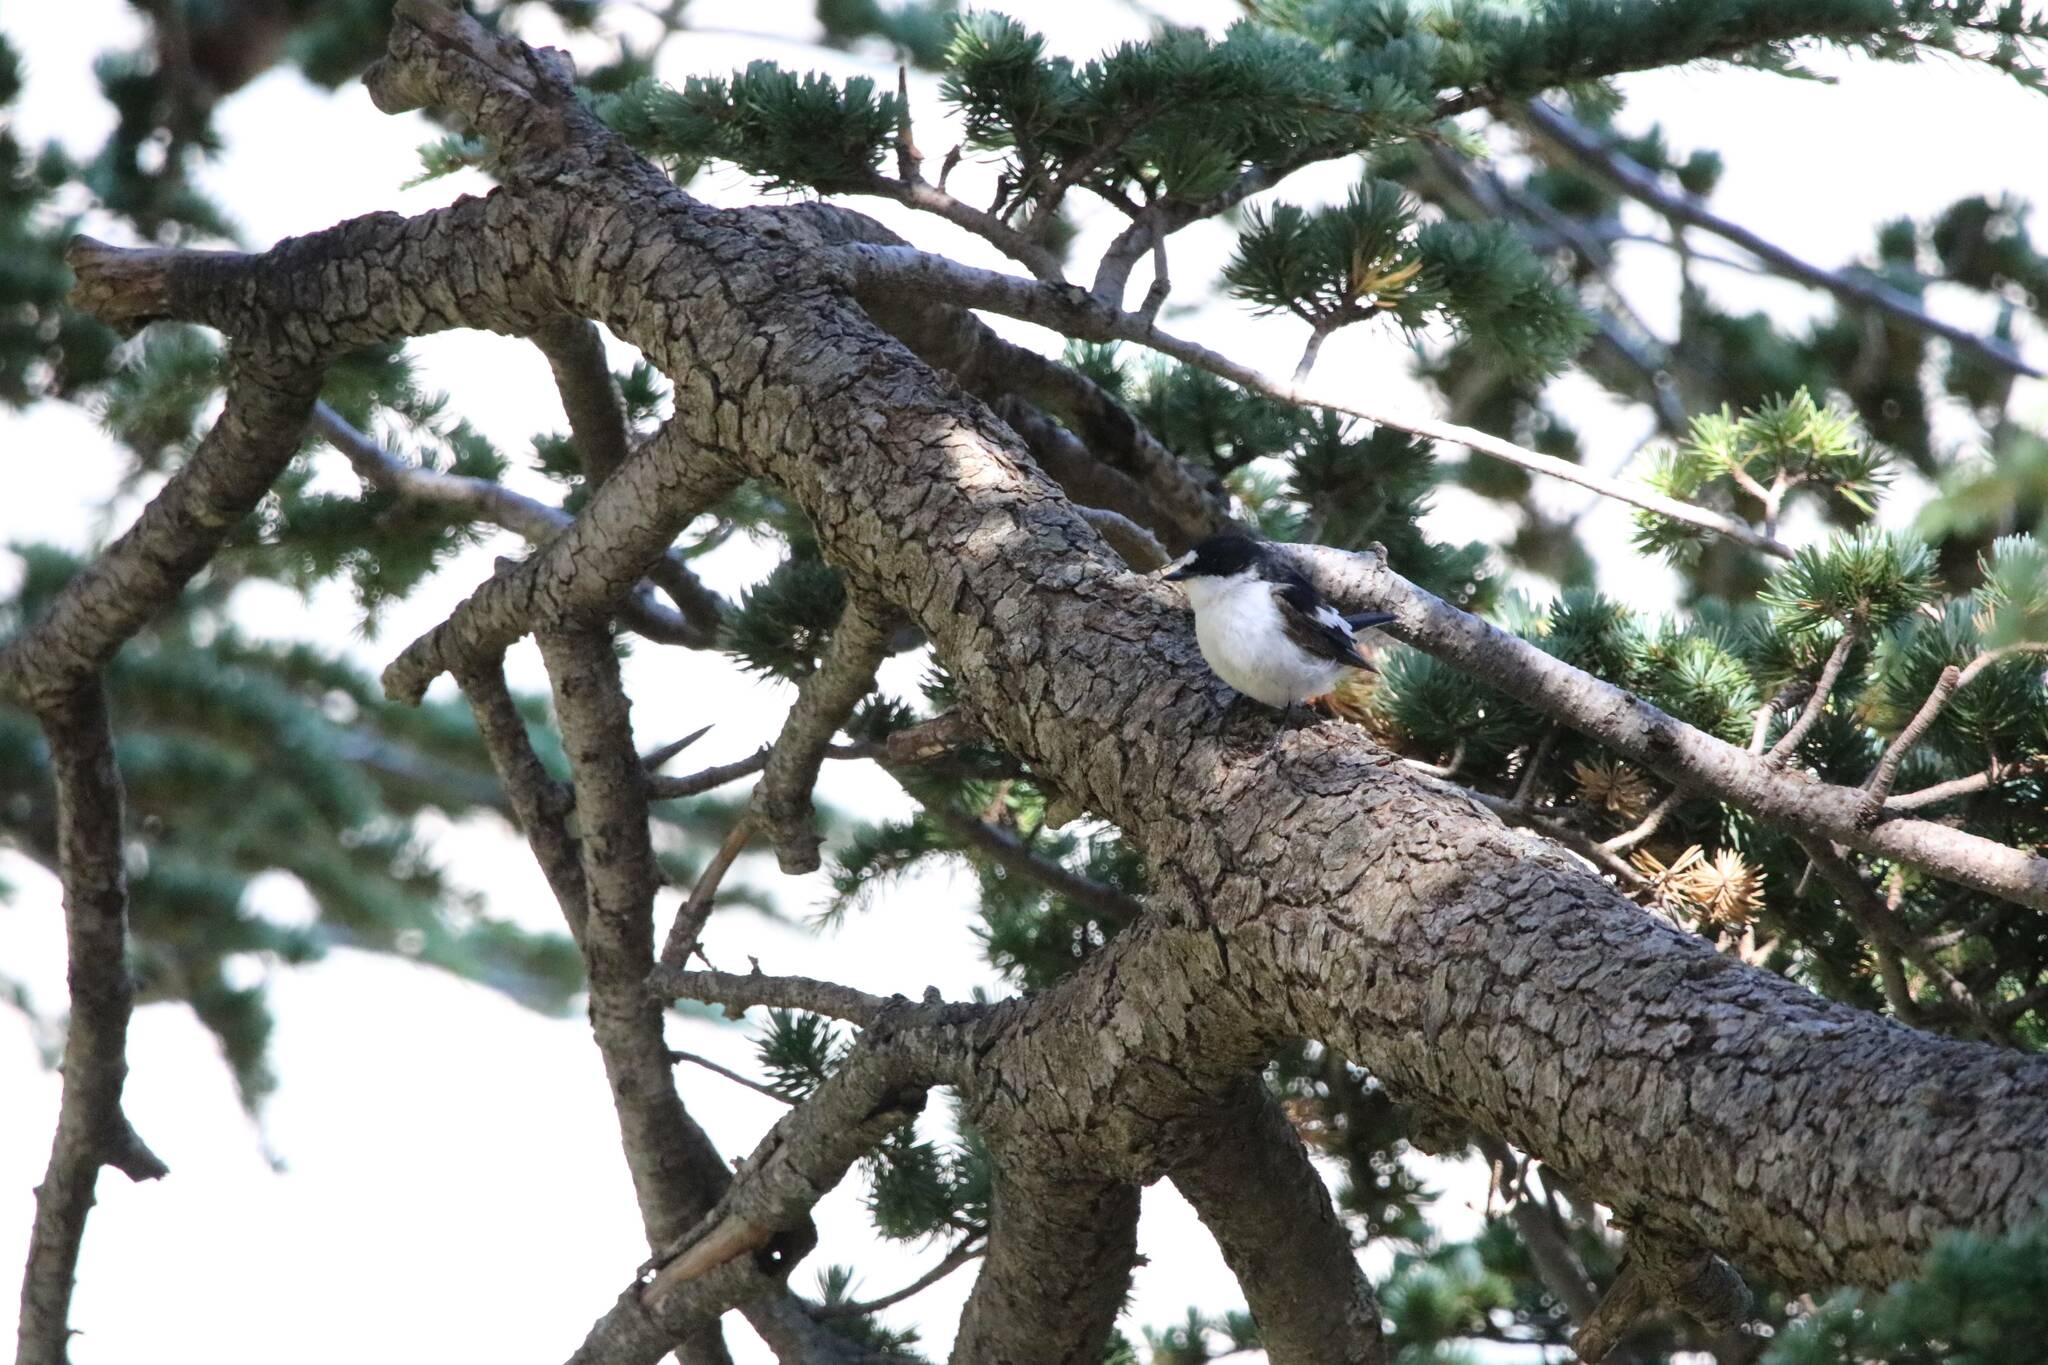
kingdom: Animalia
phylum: Chordata
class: Aves
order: Passeriformes
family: Muscicapidae
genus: Ficedula
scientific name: Ficedula speculigera
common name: Atlas pied flycatcher
